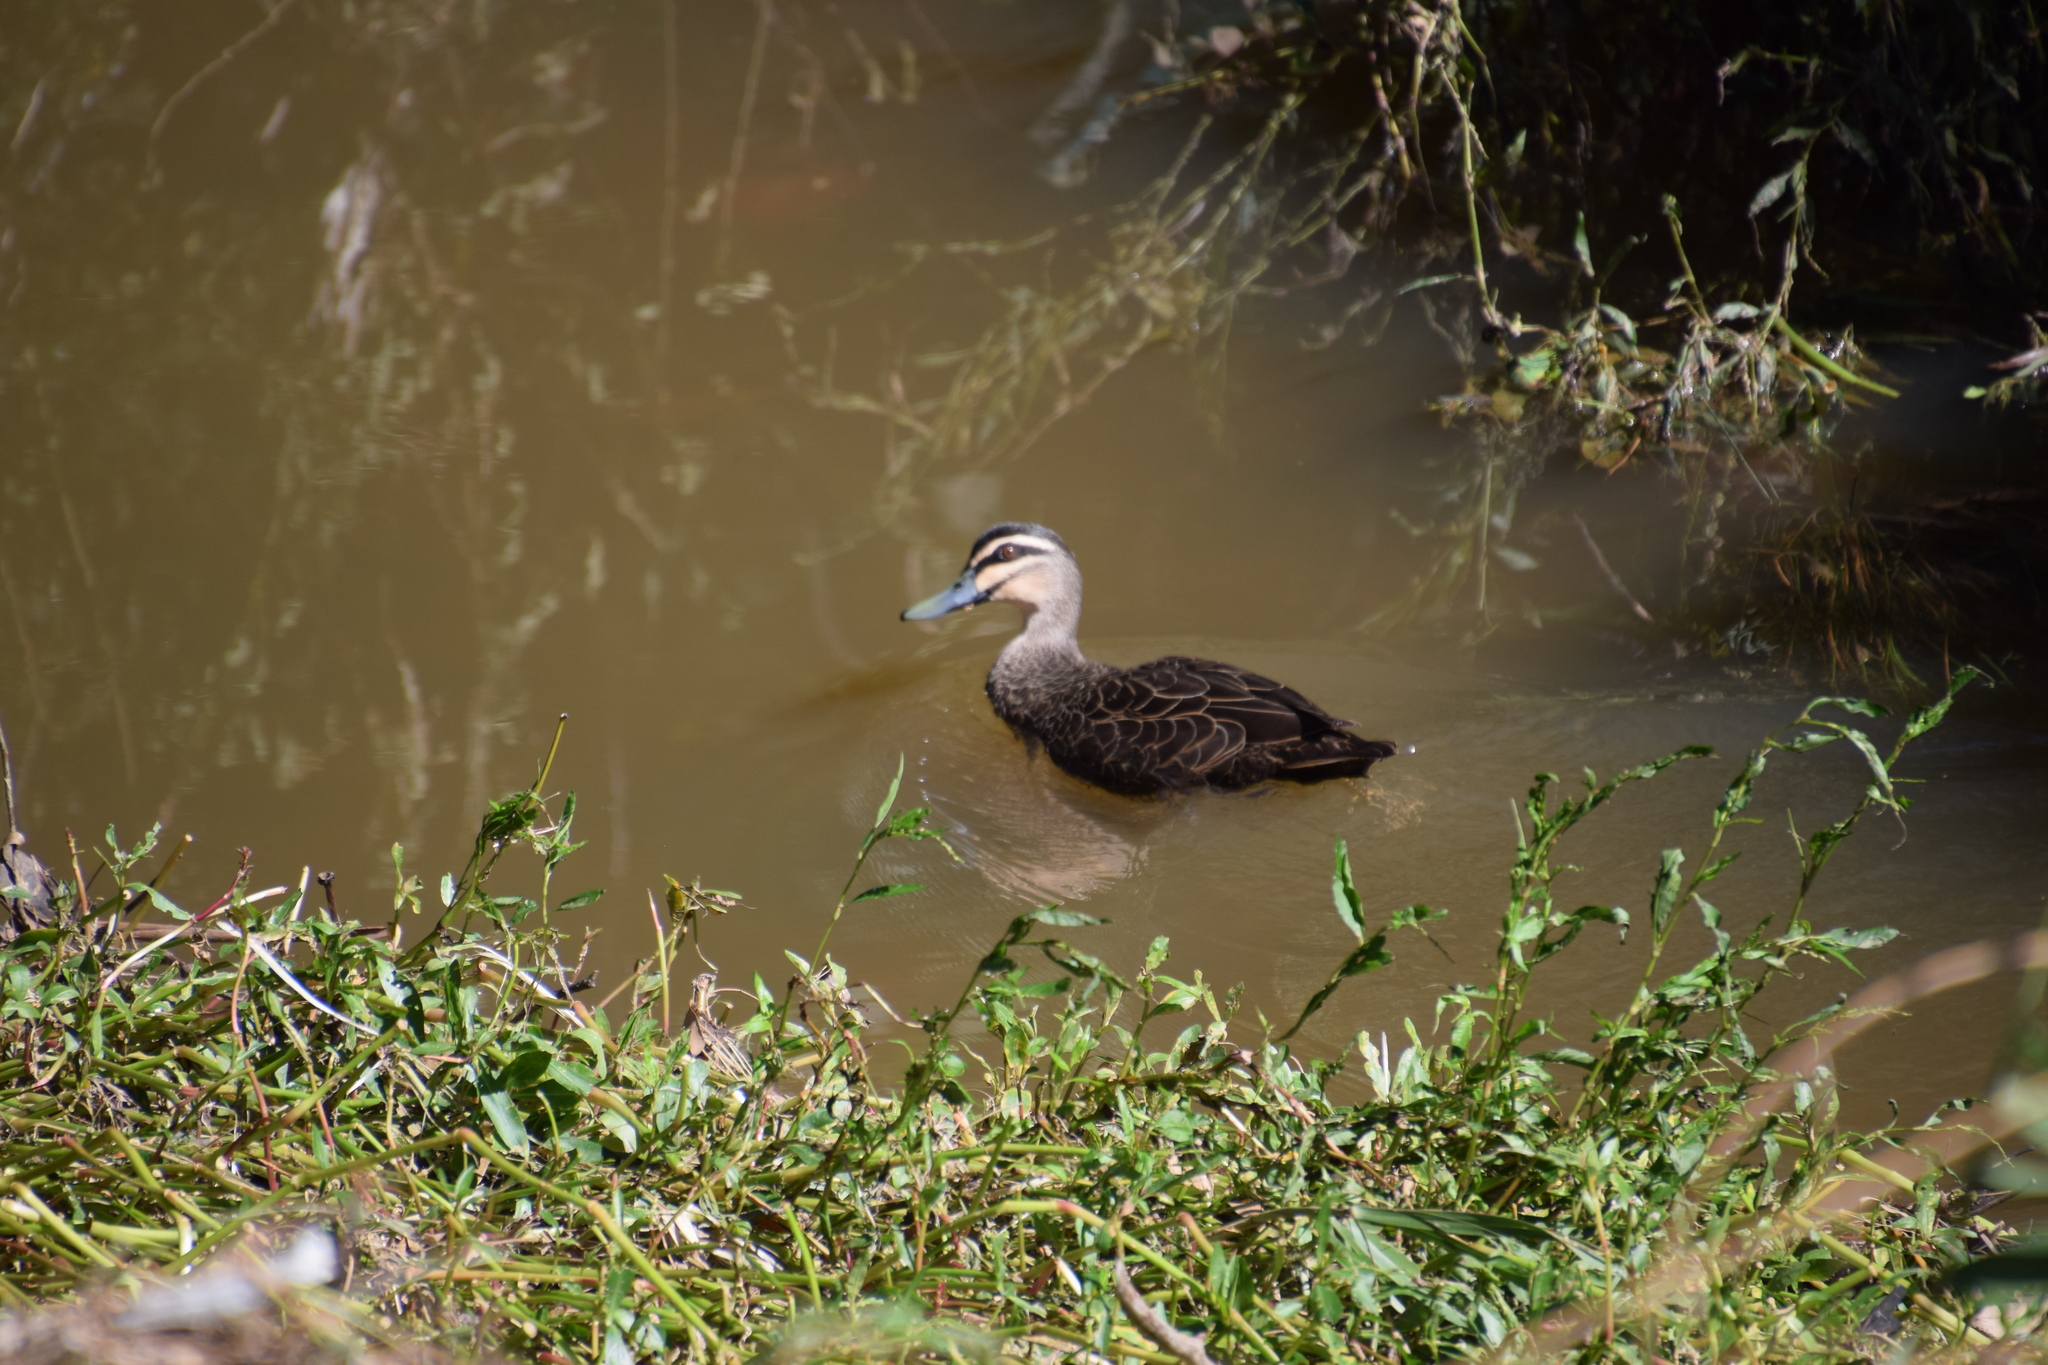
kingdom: Animalia
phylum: Chordata
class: Aves
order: Anseriformes
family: Anatidae
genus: Anas
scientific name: Anas superciliosa
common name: Pacific black duck
